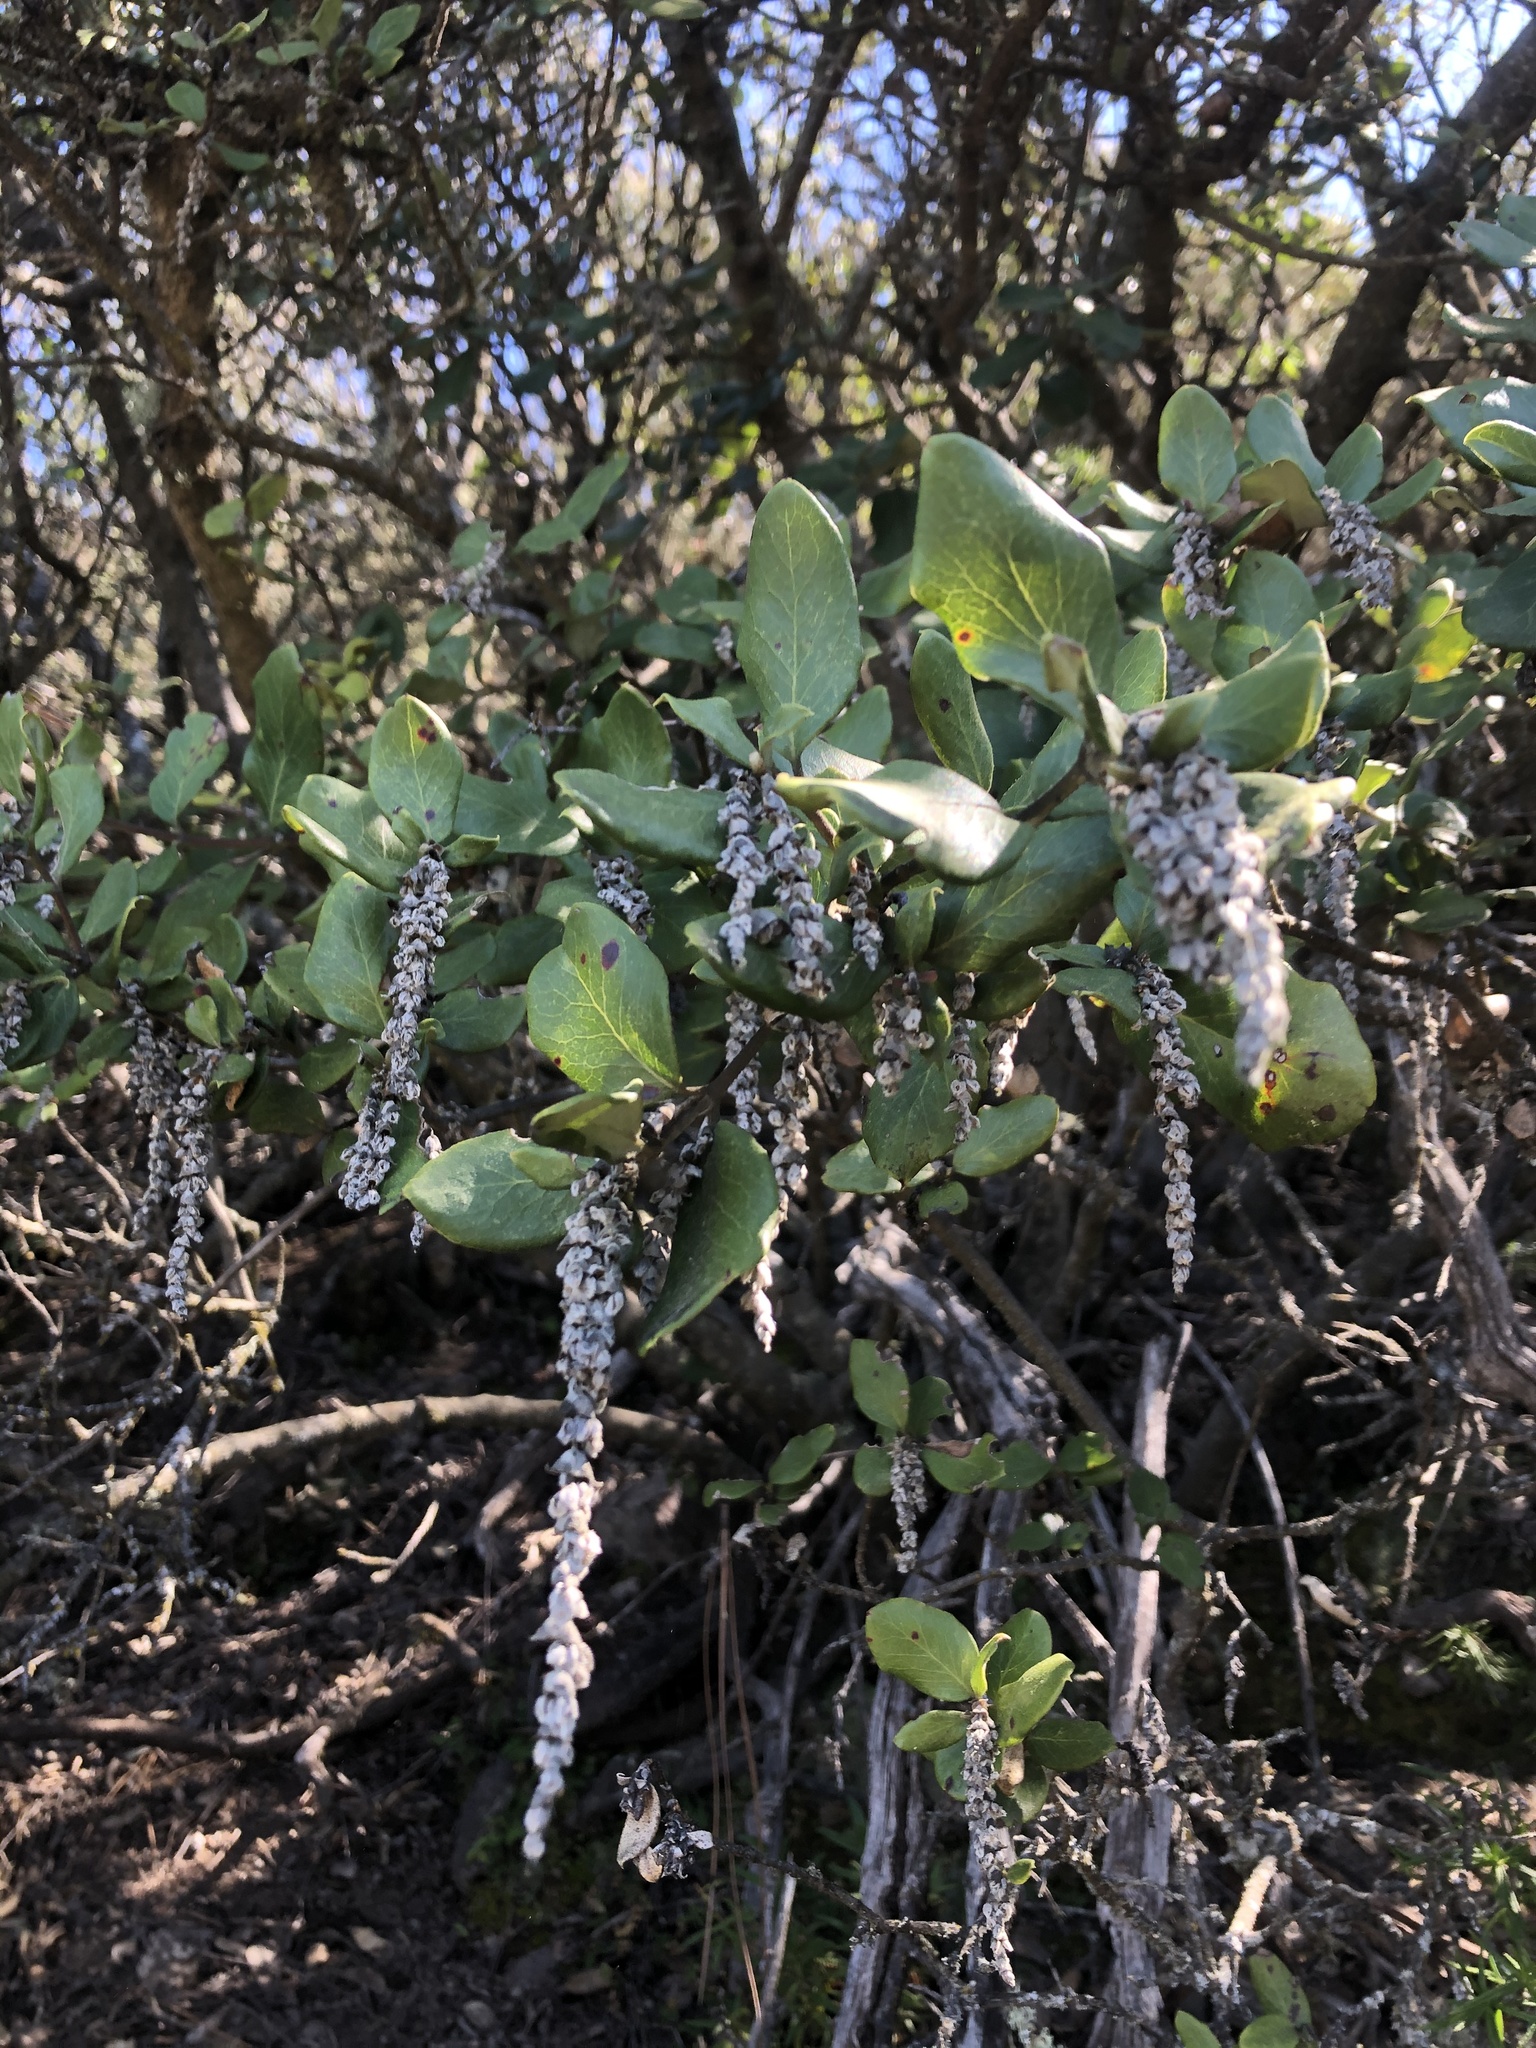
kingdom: Plantae
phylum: Tracheophyta
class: Magnoliopsida
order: Garryales
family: Garryaceae
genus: Garrya
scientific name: Garrya elliptica
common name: Silk-tassel
